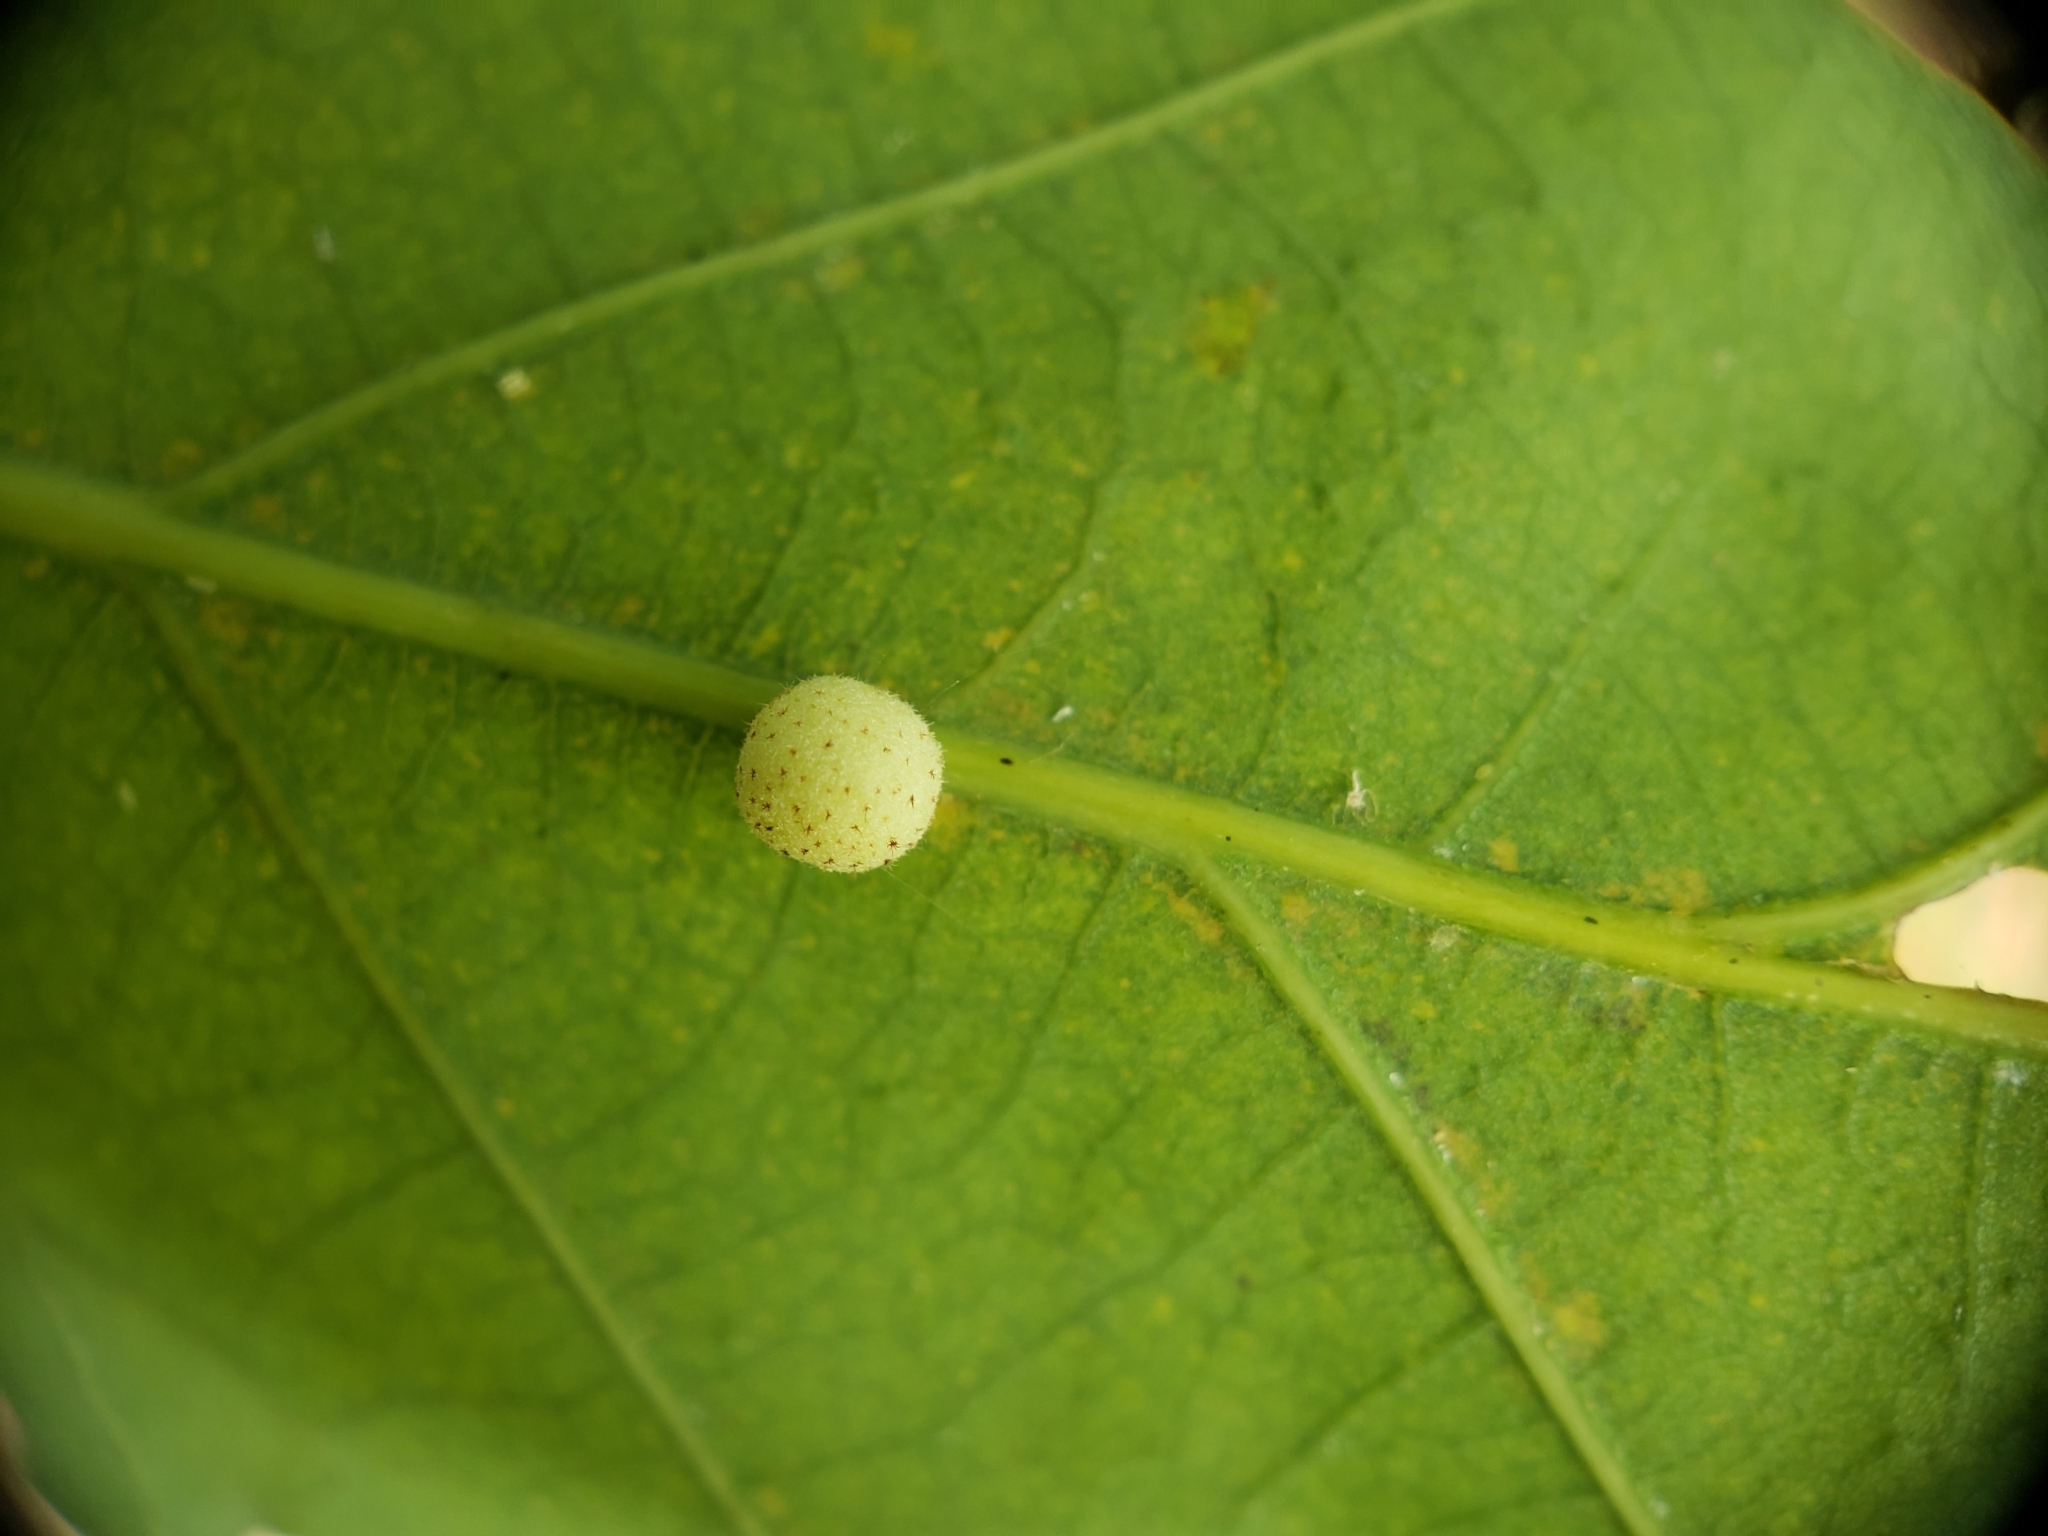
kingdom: Animalia
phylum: Arthropoda
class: Insecta
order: Hymenoptera
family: Cynipidae
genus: Philonix
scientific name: Philonix fulvicollis
